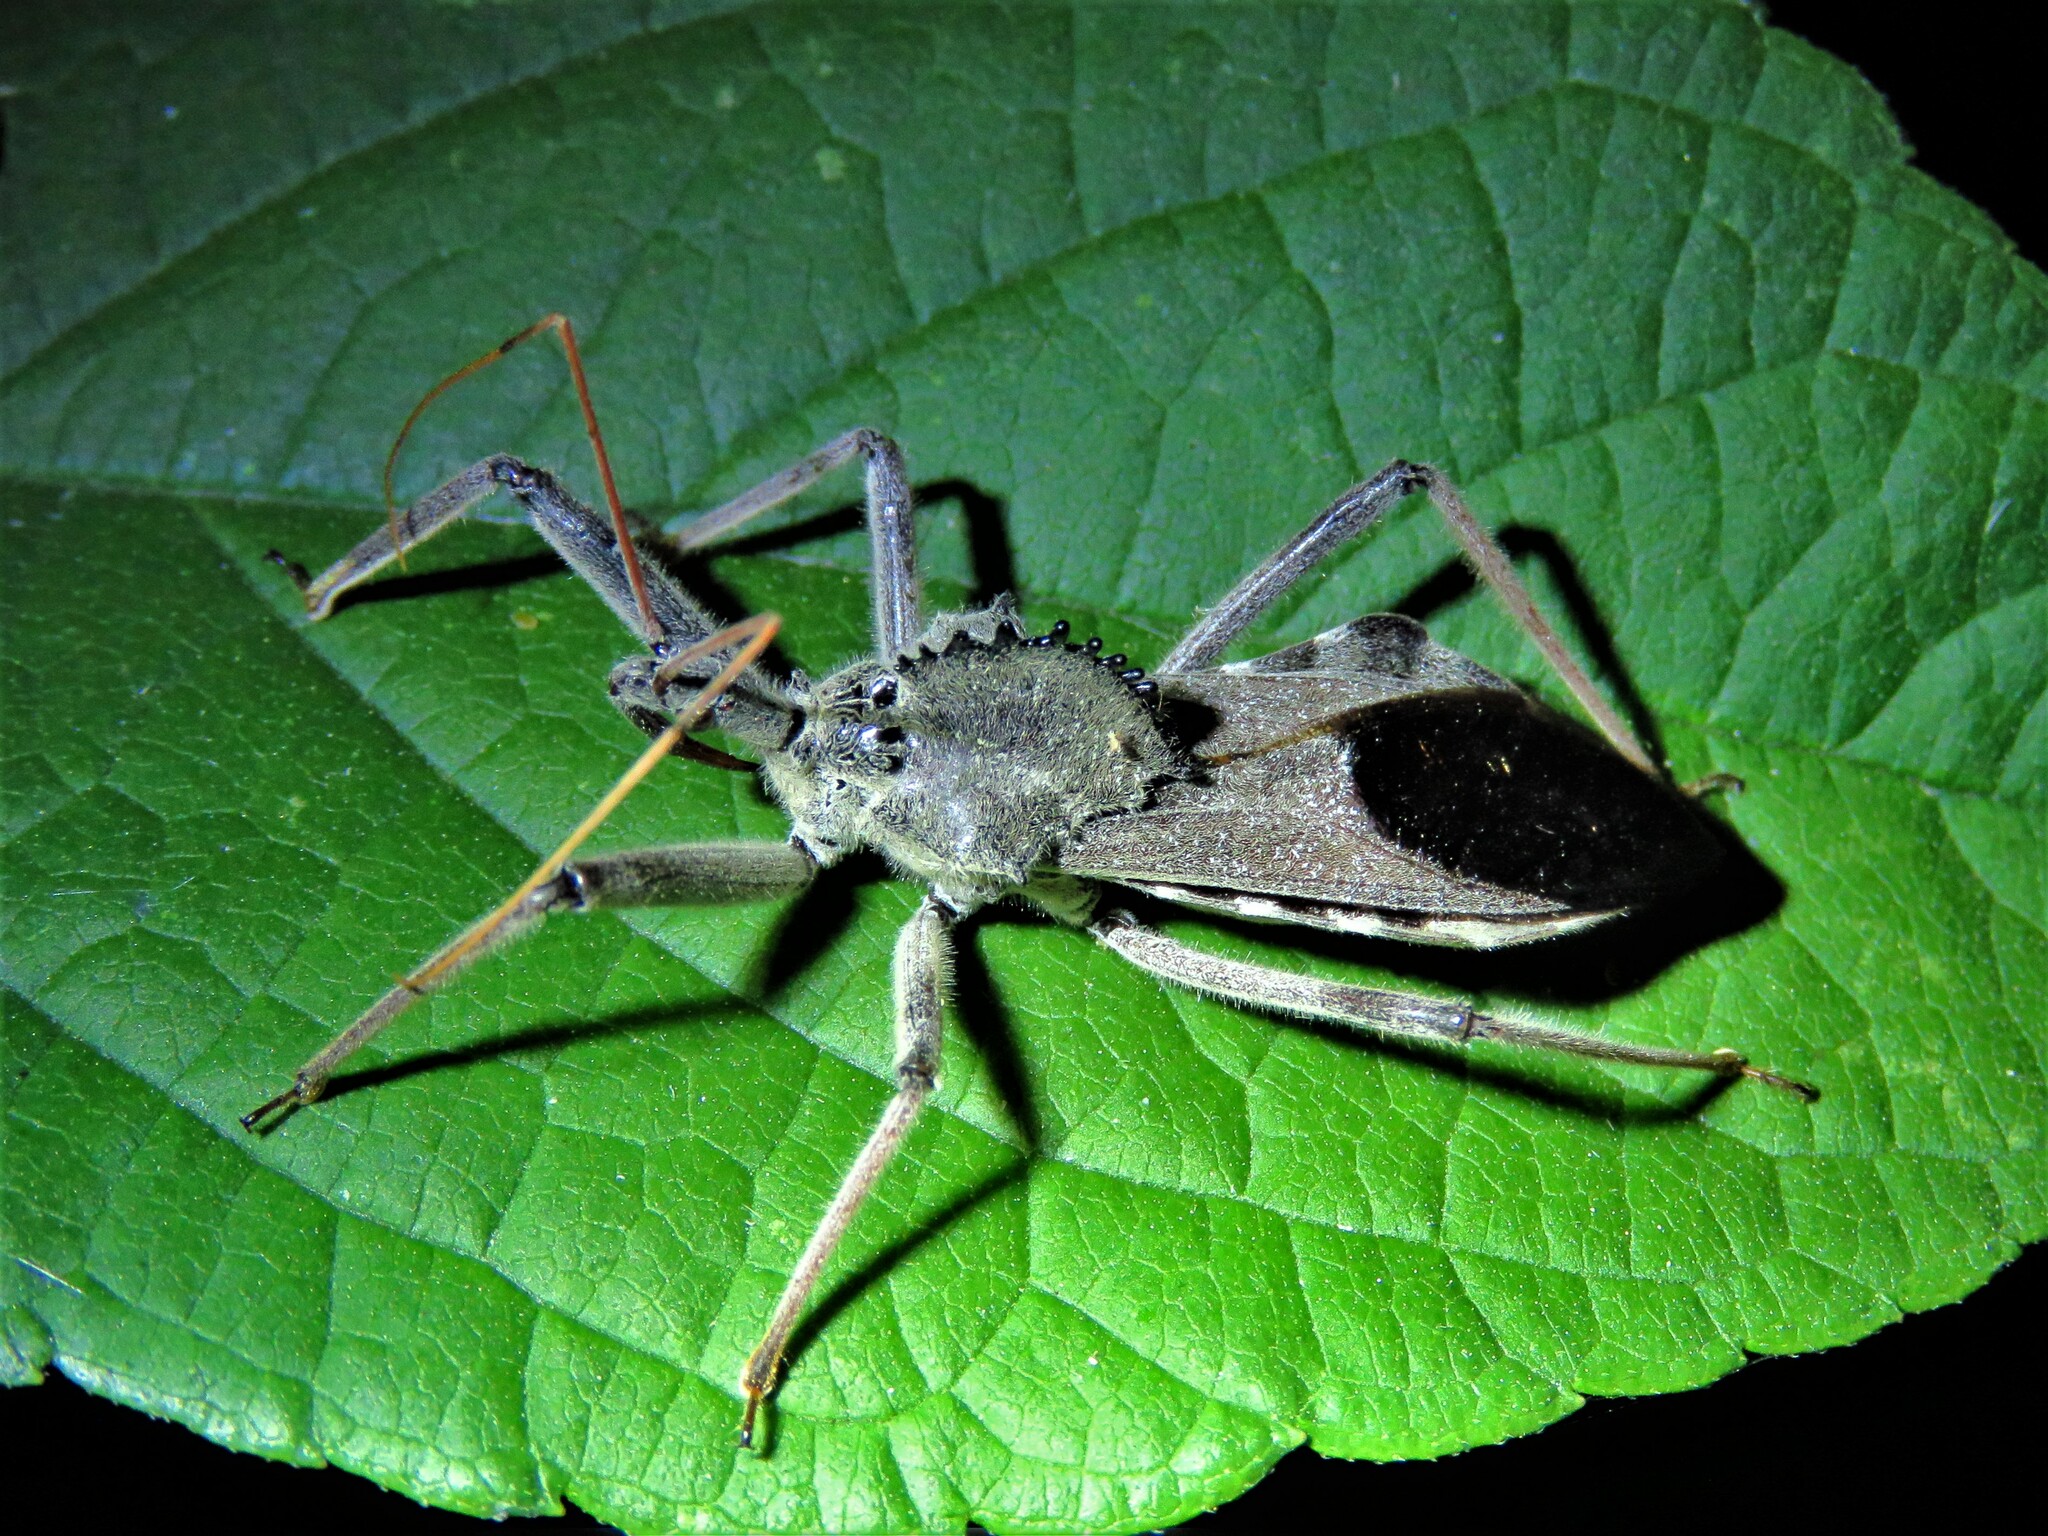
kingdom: Animalia
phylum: Arthropoda
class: Insecta
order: Hemiptera
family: Reduviidae
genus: Arilus
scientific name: Arilus cristatus
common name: North american wheel bug
